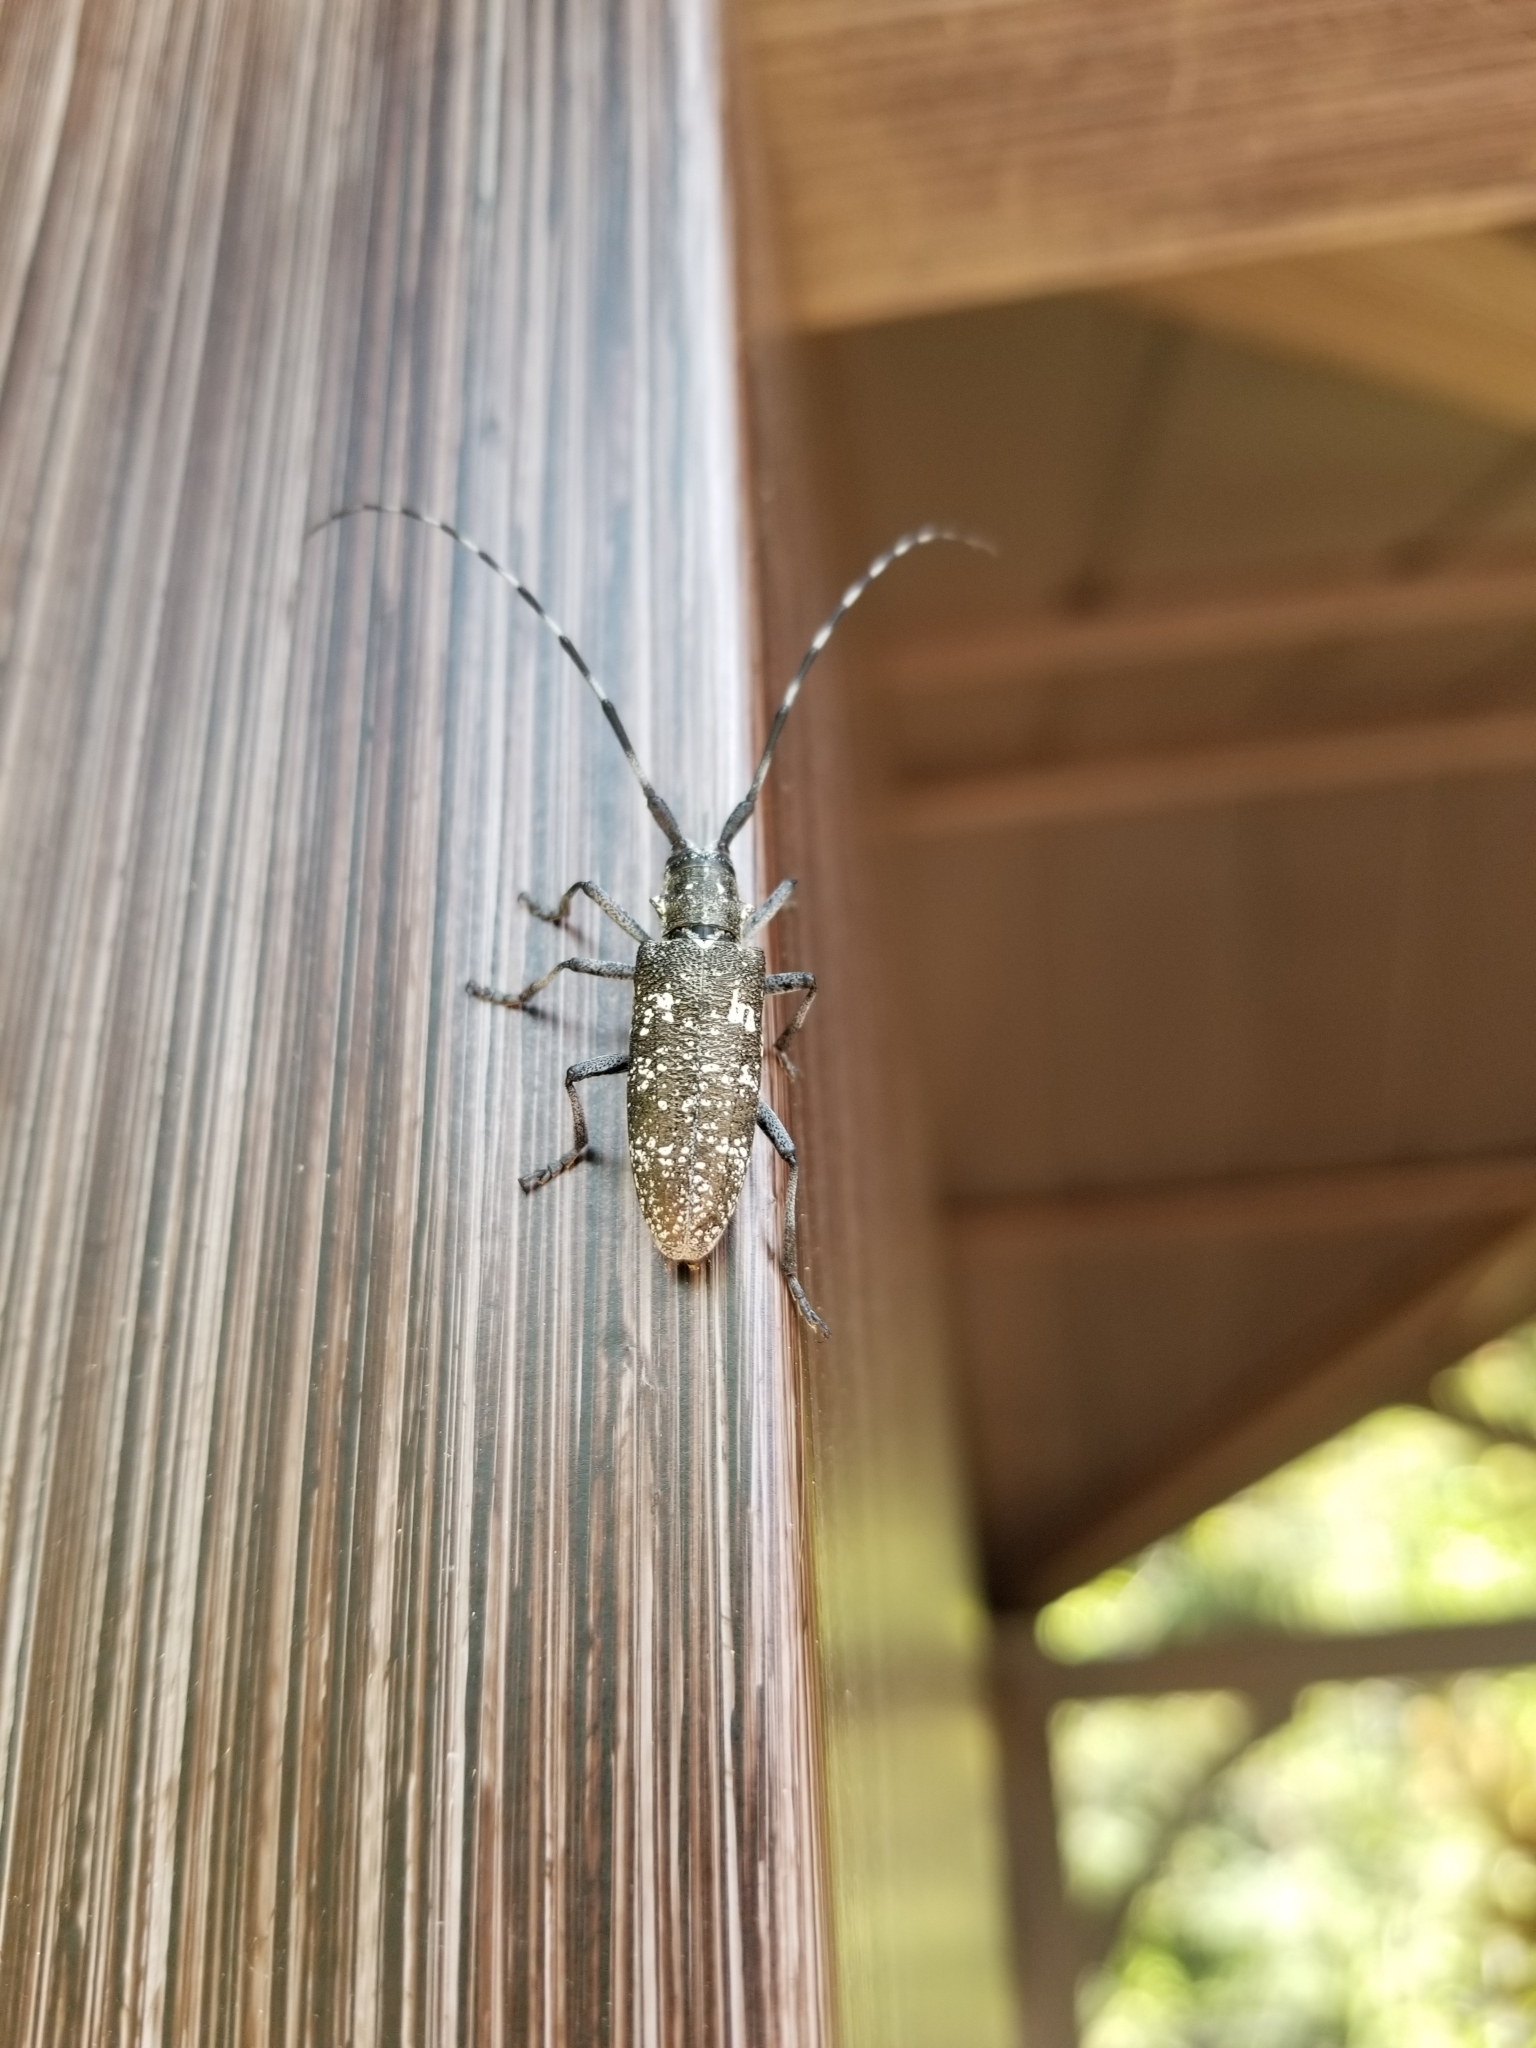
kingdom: Animalia
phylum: Arthropoda
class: Insecta
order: Coleoptera
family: Cerambycidae
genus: Monochamus
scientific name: Monochamus scutellatus
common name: White-spotted sawyer beetle
